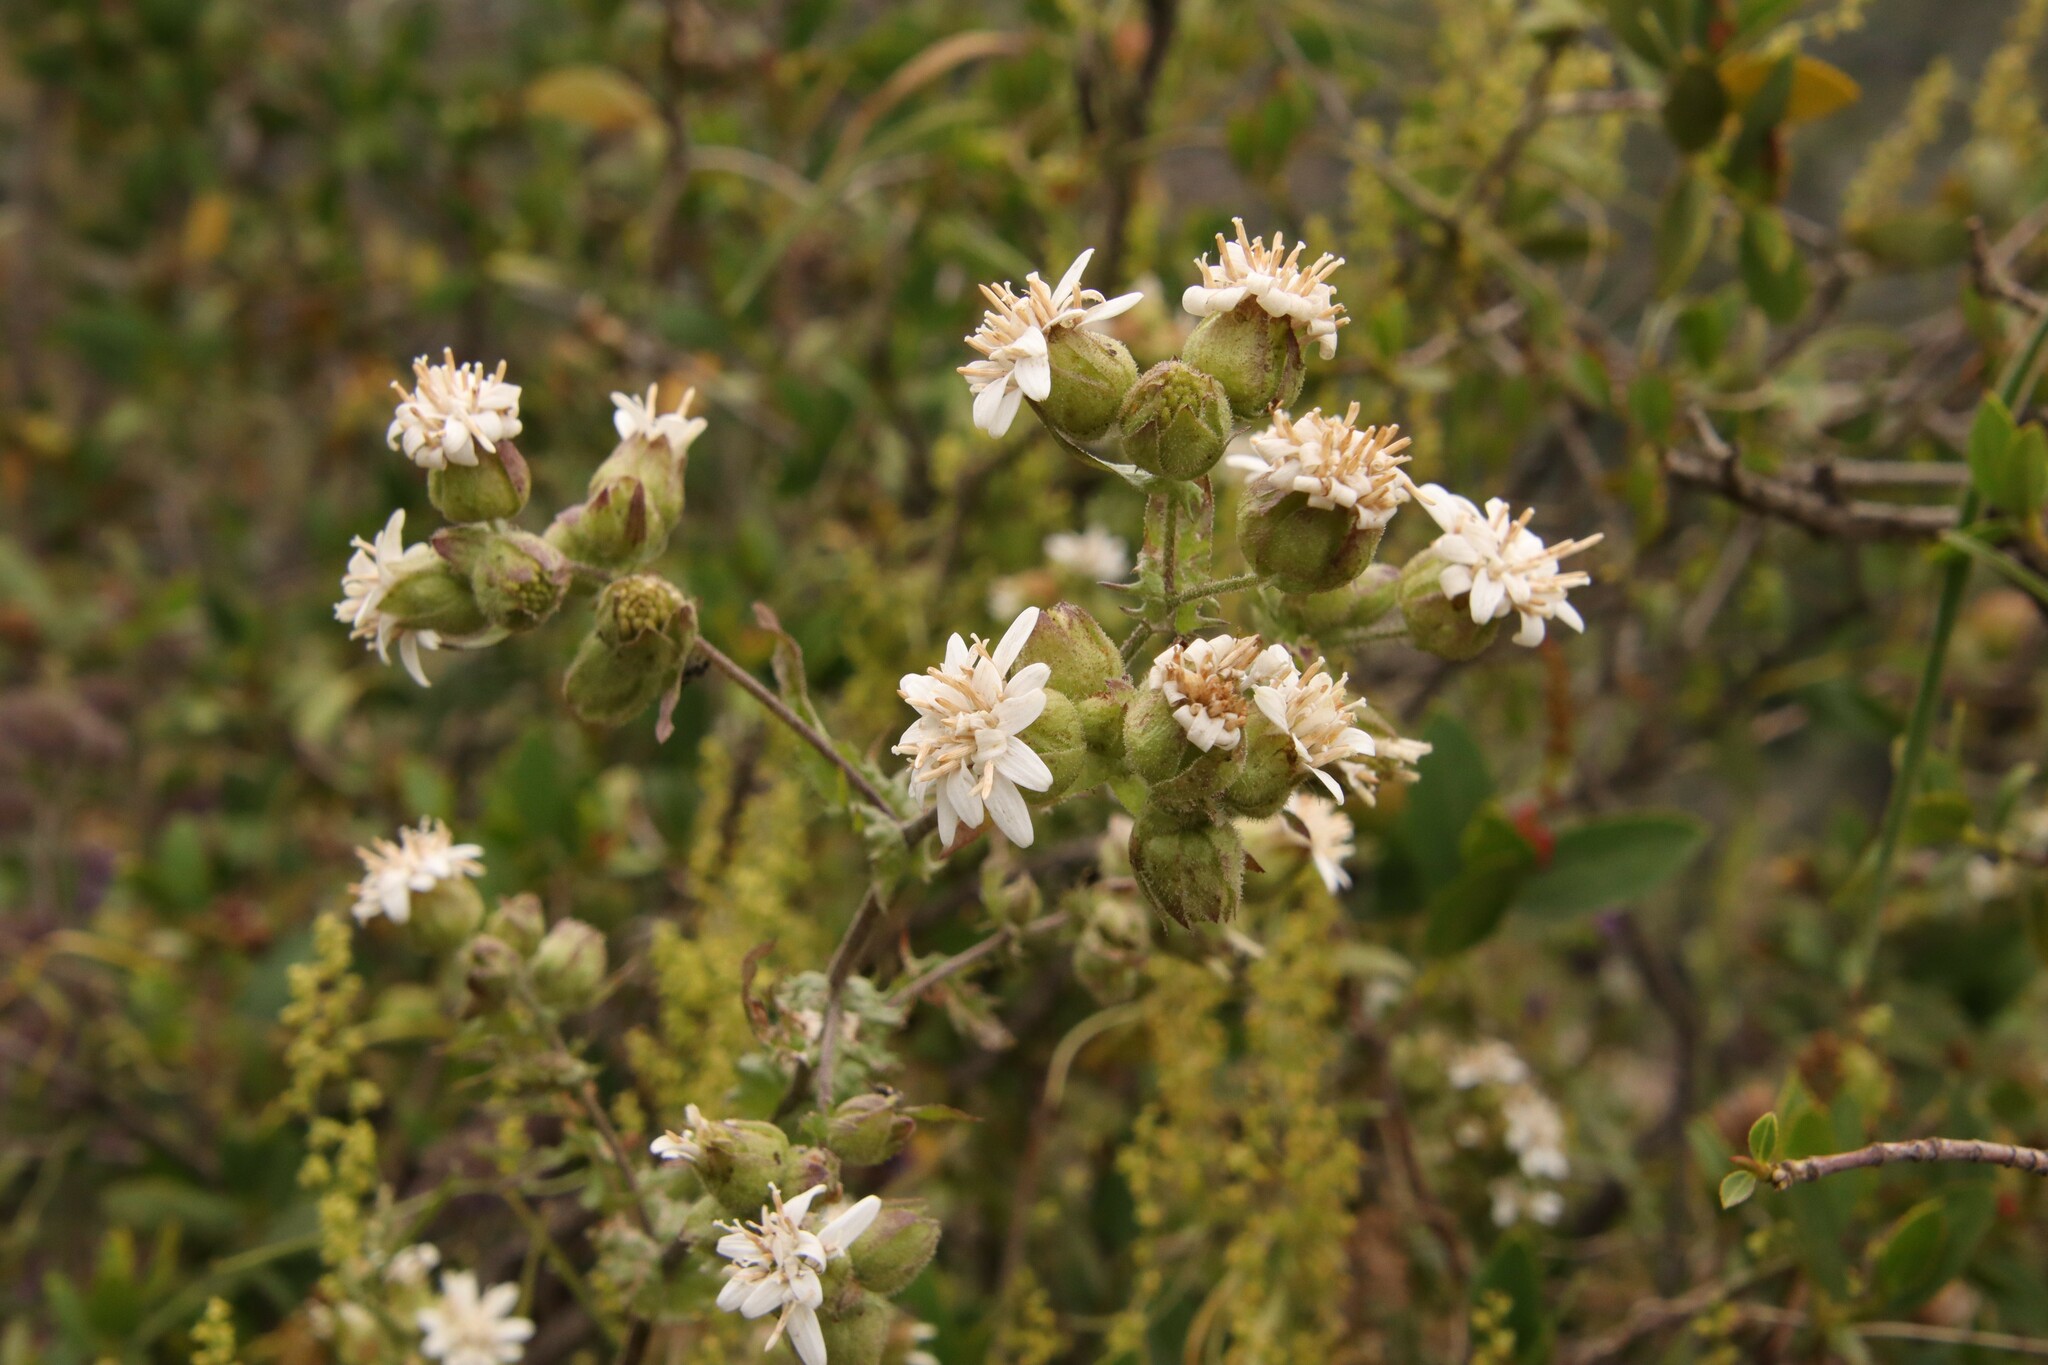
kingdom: Plantae
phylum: Tracheophyta
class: Magnoliopsida
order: Asterales
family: Asteraceae
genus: Moscharia
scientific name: Moscharia pinnatifida
